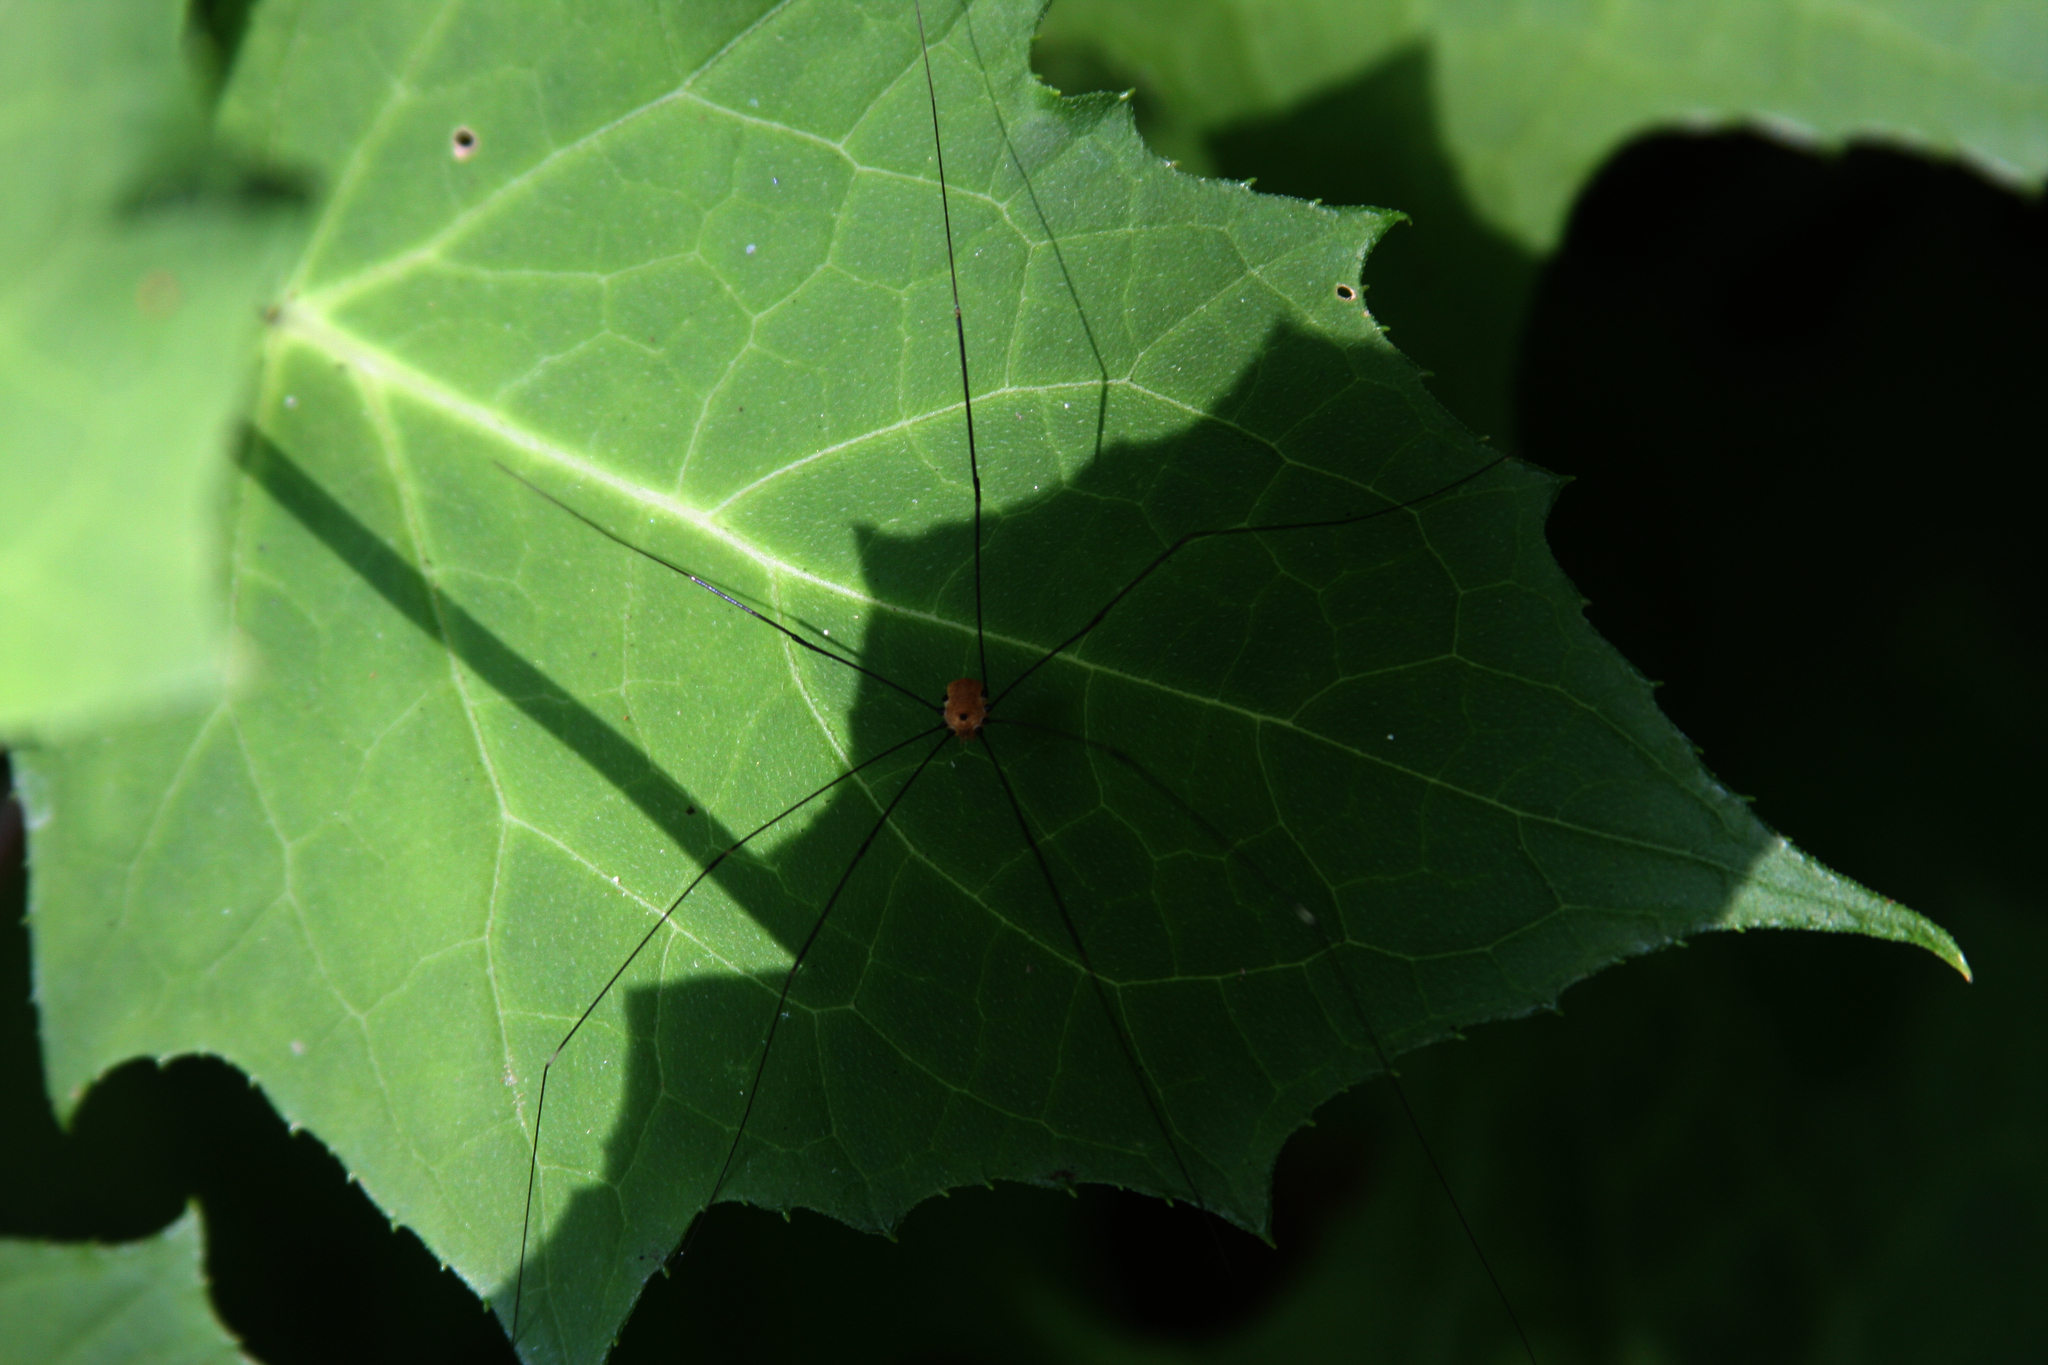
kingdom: Animalia
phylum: Arthropoda
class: Arachnida
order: Opiliones
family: Sclerosomatidae
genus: Leiobunum
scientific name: Leiobunum aldrichi
